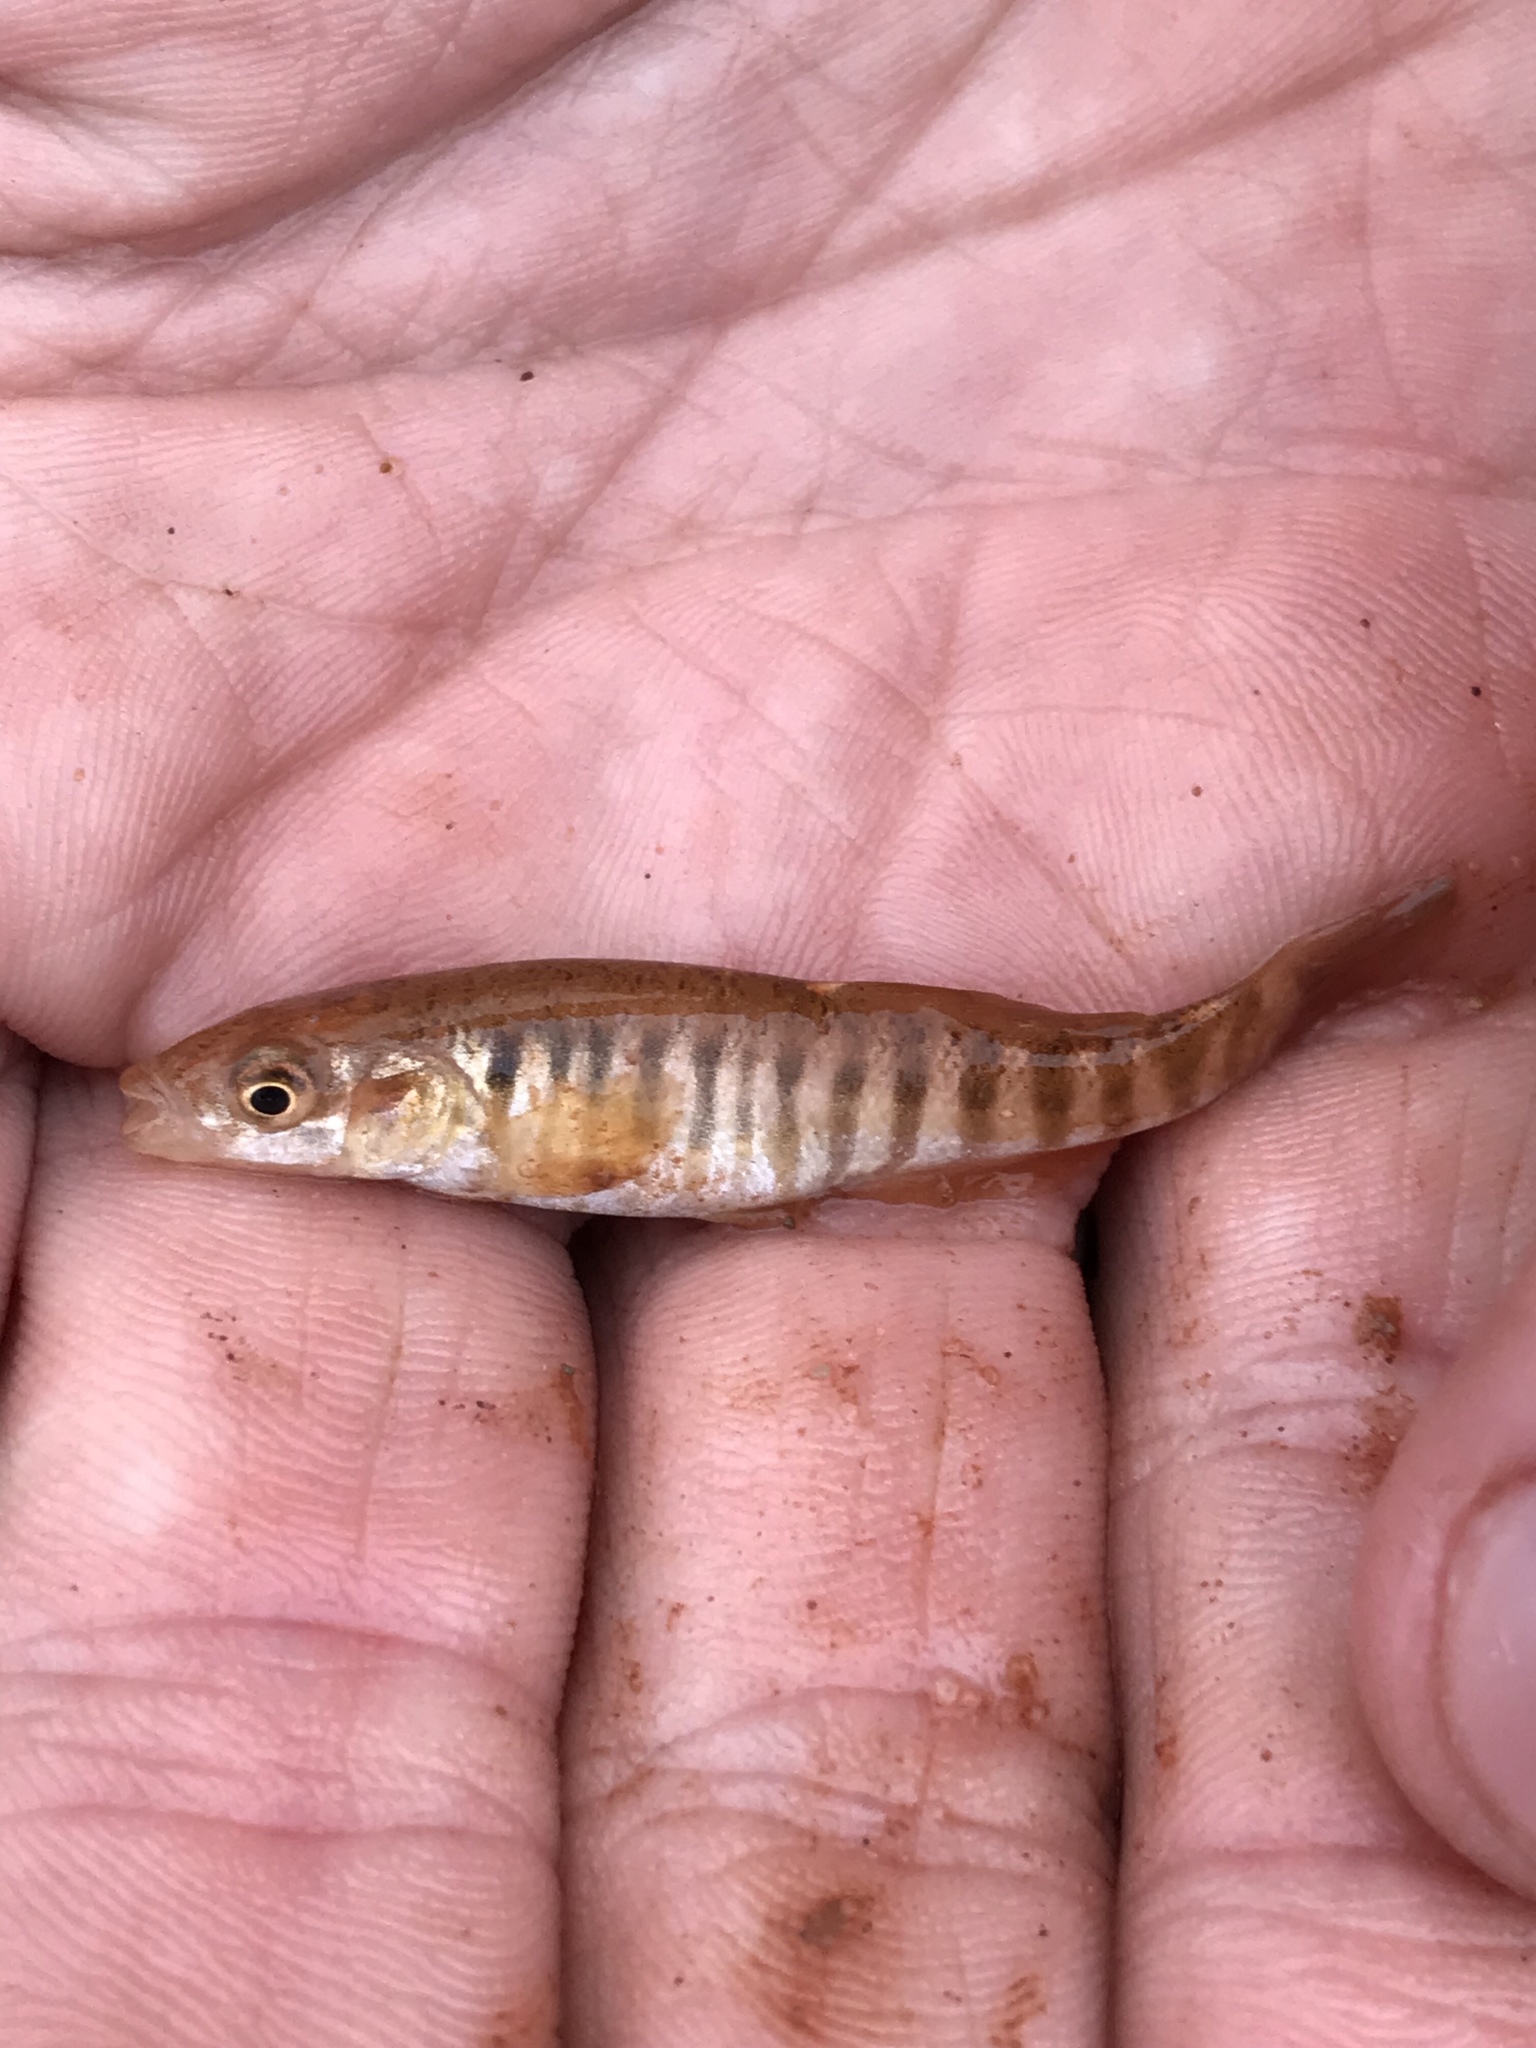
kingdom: Animalia
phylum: Chordata
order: Cyprinodontiformes
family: Fundulidae
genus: Fundulus
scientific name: Fundulus zebrinus
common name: Plains killifish
